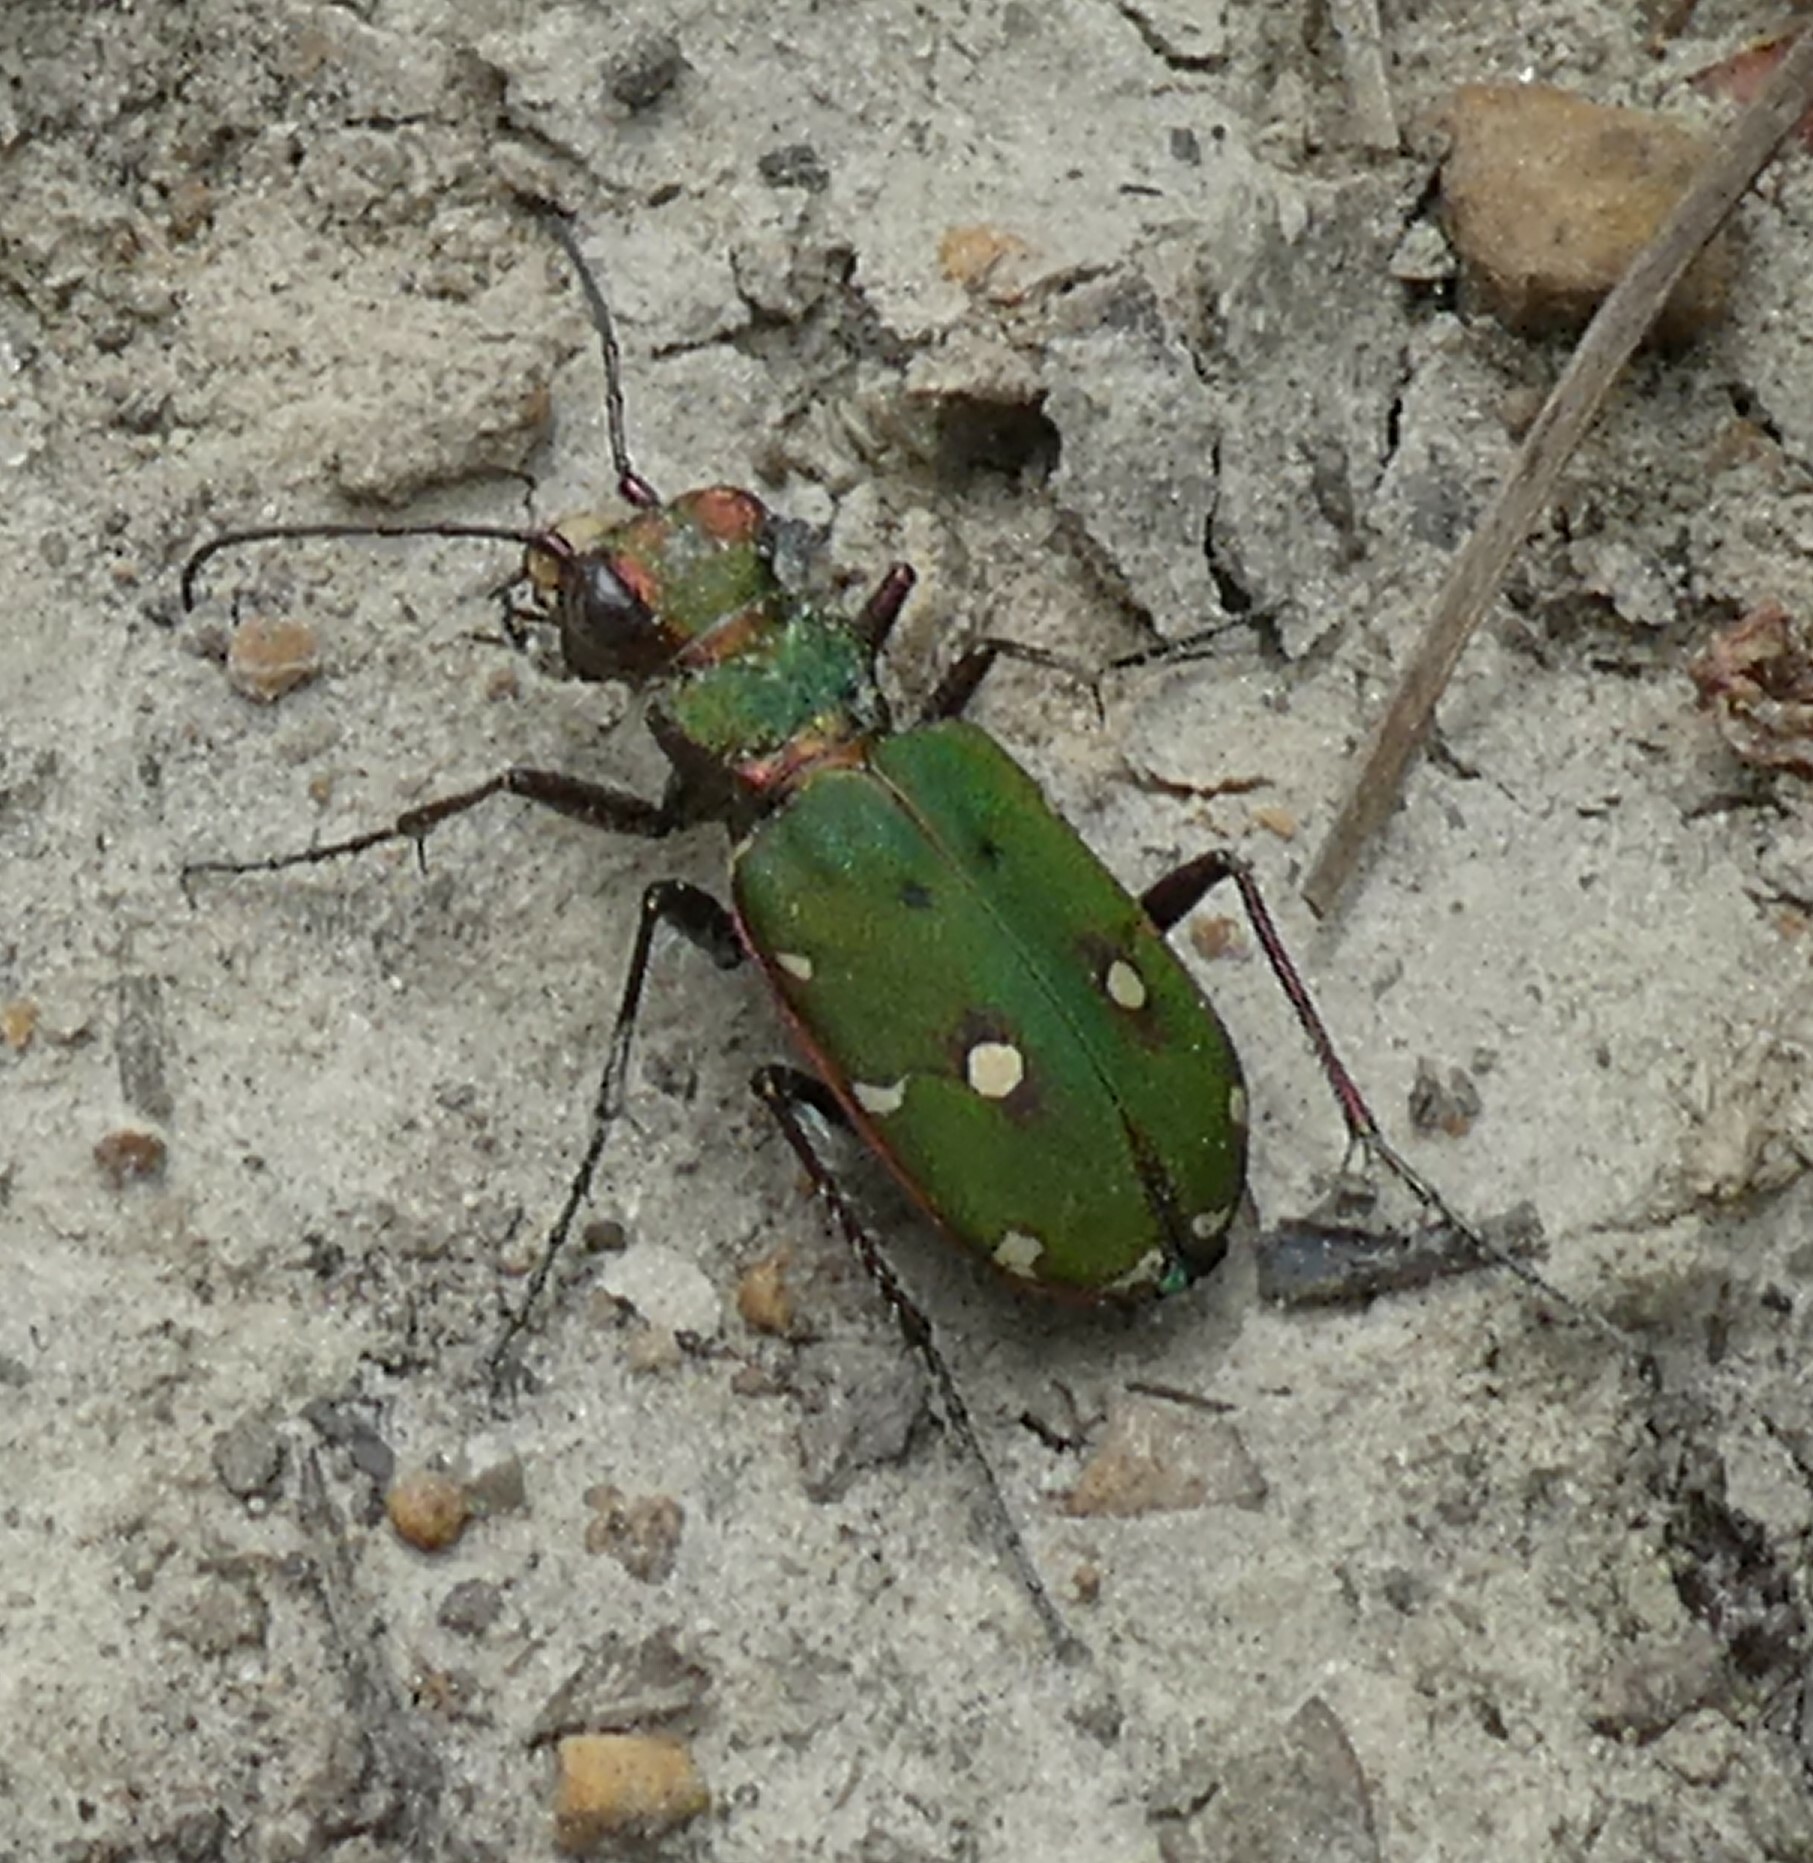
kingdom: Animalia
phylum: Arthropoda
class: Insecta
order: Coleoptera
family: Carabidae
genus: Cicindela
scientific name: Cicindela campestris
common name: Common tiger beetle
